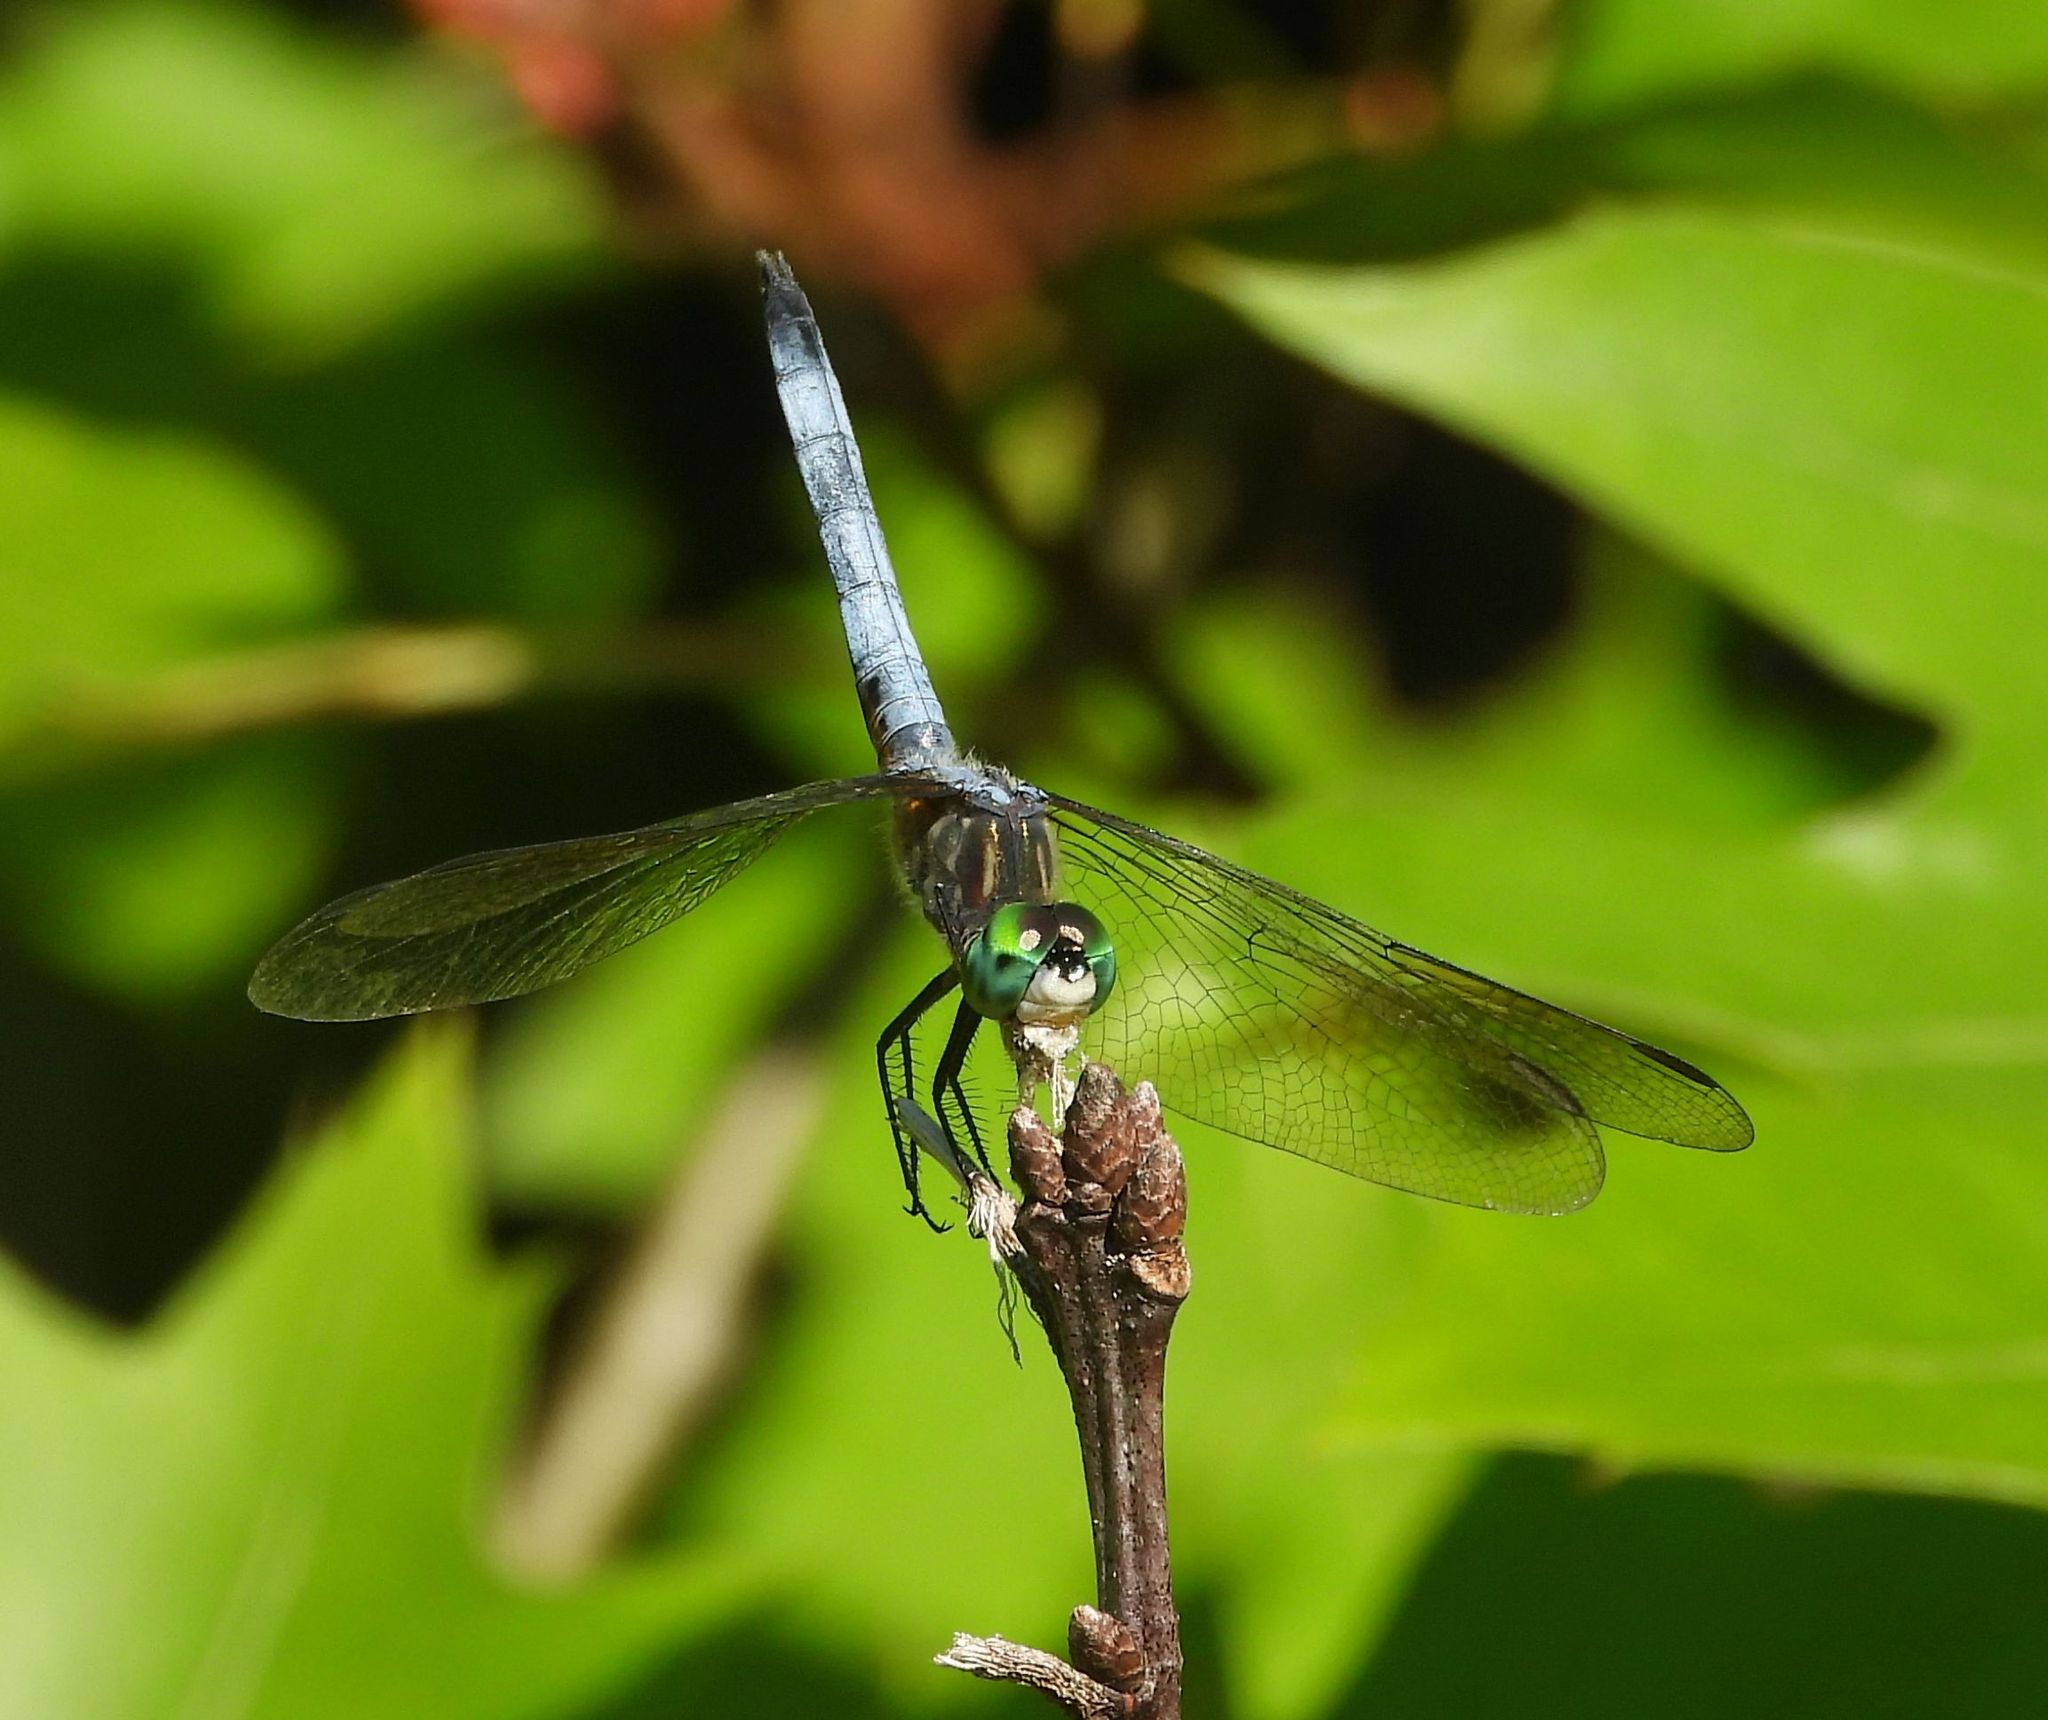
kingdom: Animalia
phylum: Arthropoda
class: Insecta
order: Odonata
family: Libellulidae
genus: Pachydiplax
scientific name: Pachydiplax longipennis
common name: Blue dasher
